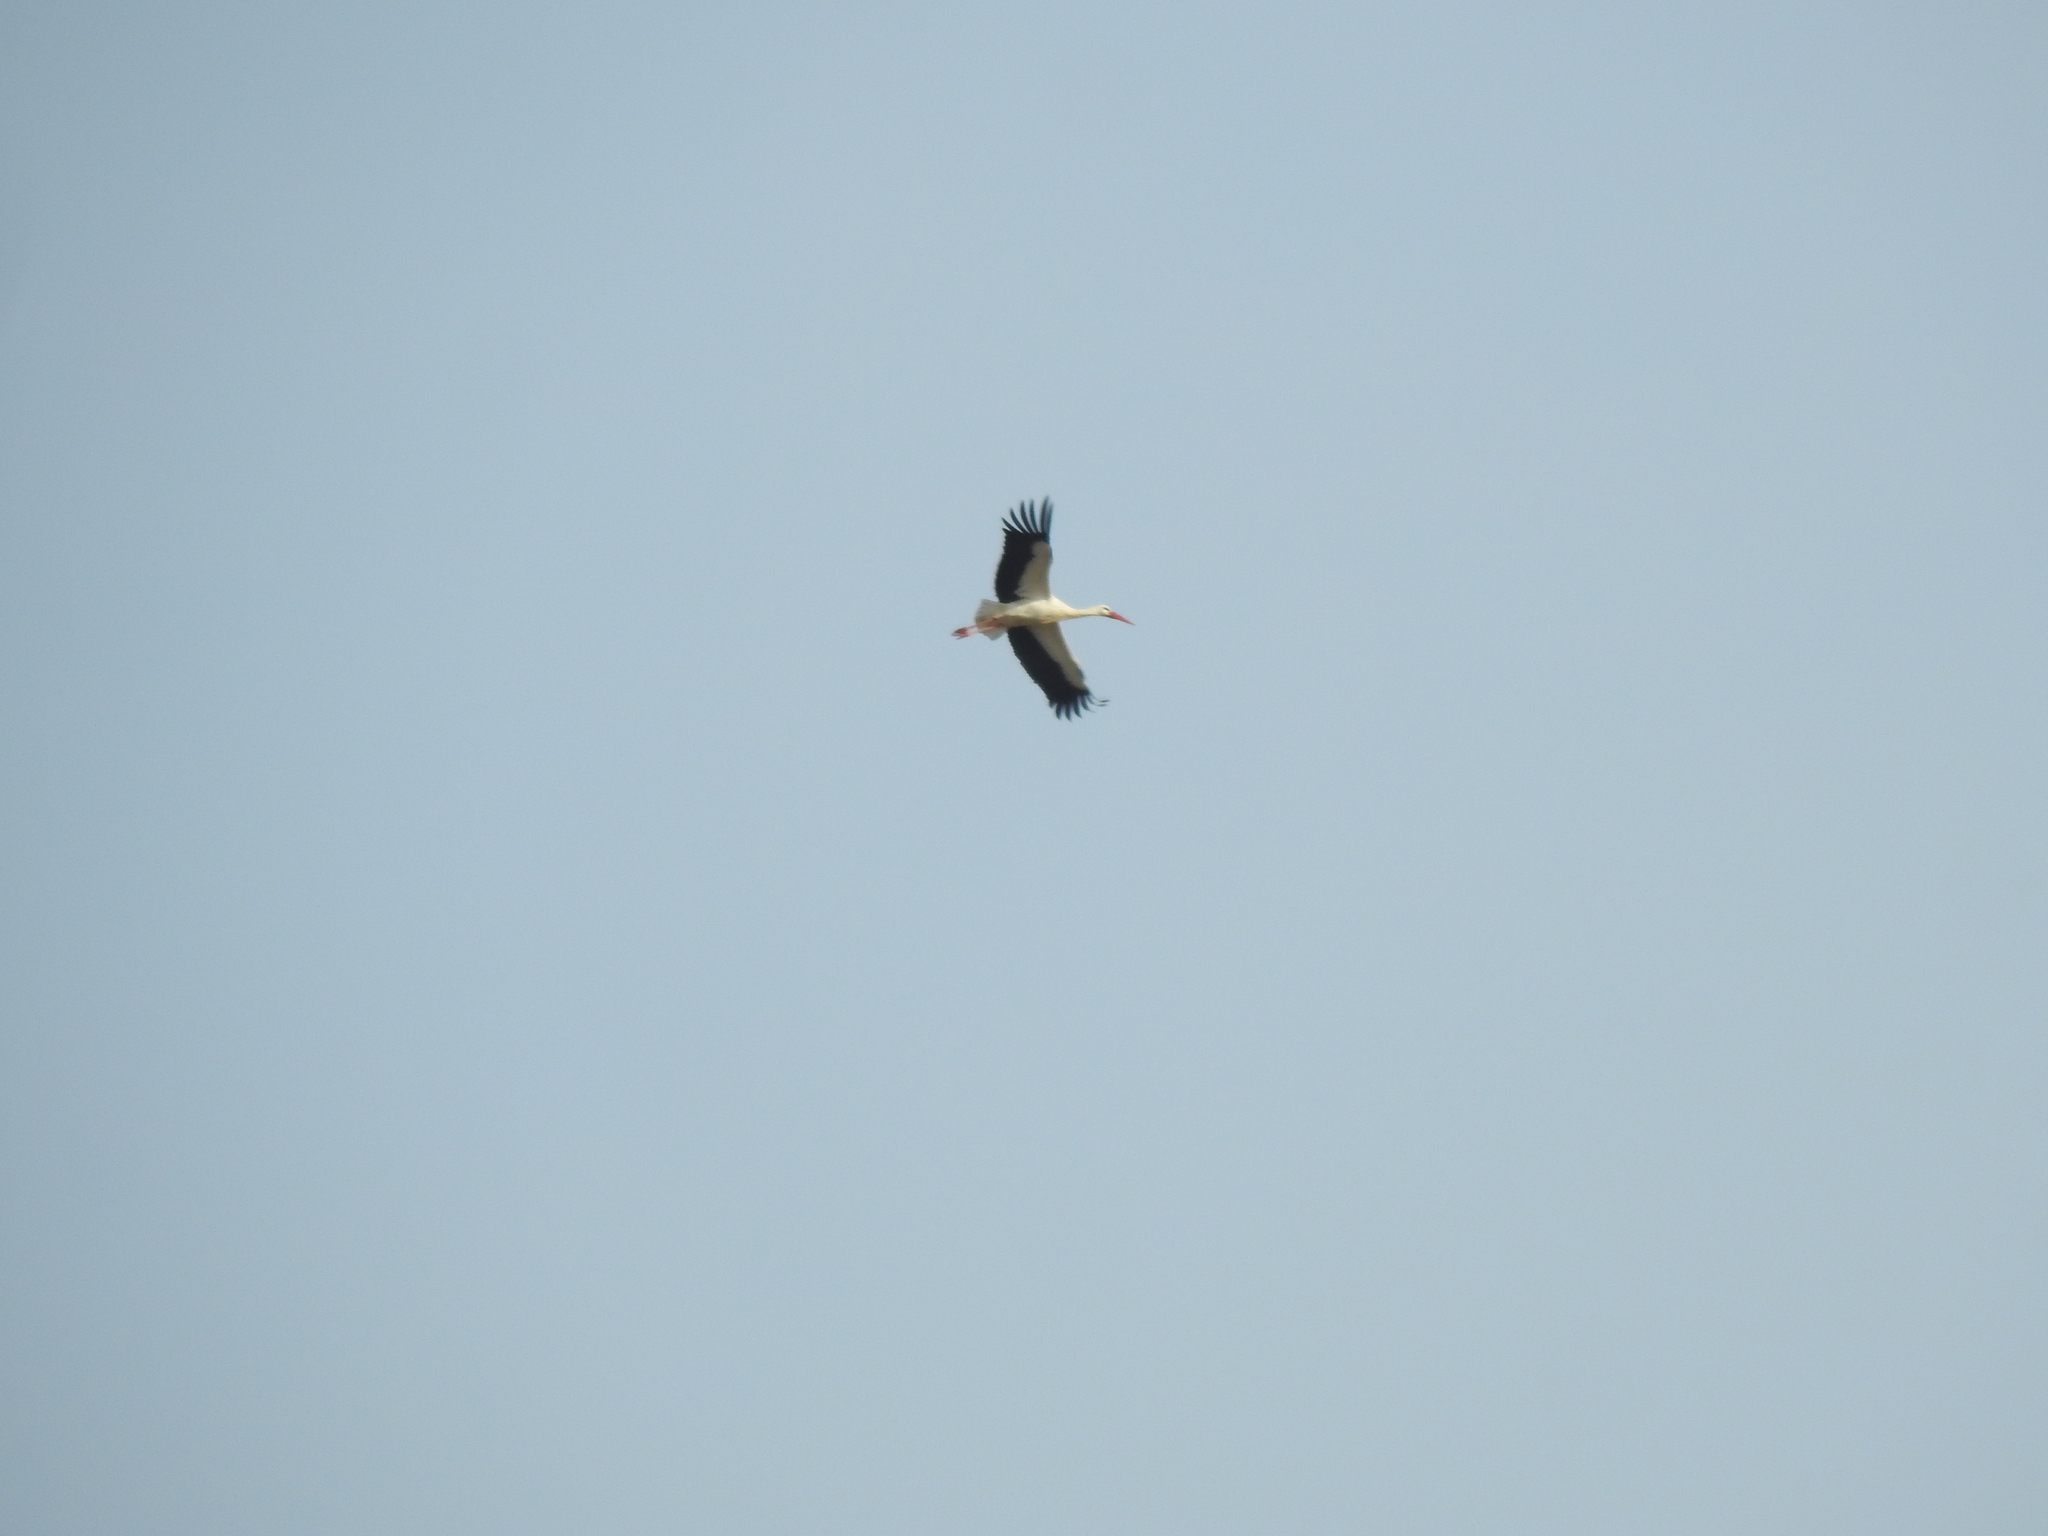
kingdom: Animalia
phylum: Chordata
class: Aves
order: Ciconiiformes
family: Ciconiidae
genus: Ciconia
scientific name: Ciconia ciconia
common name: White stork
